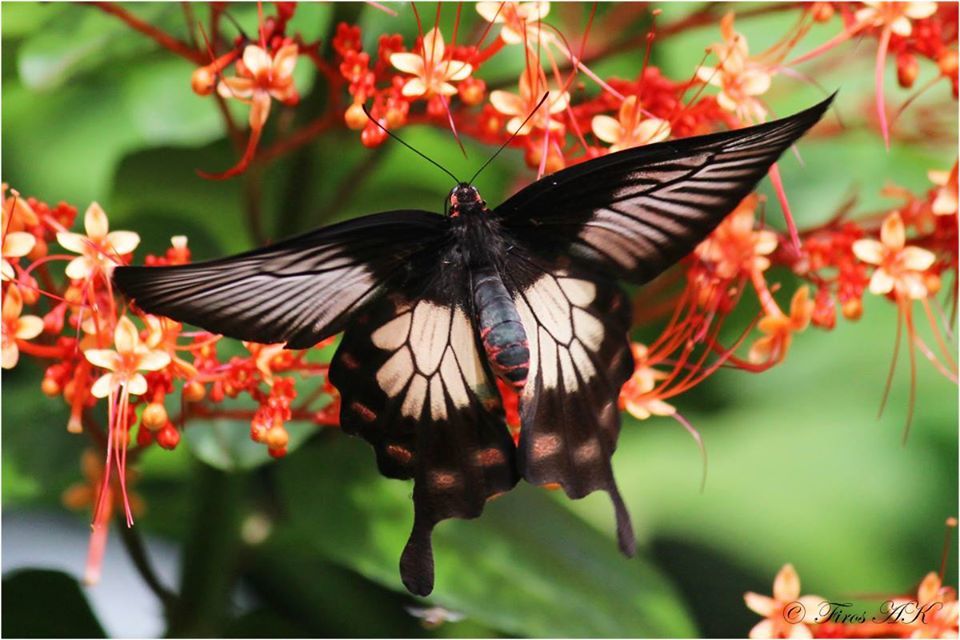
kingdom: Animalia
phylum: Arthropoda
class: Insecta
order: Lepidoptera
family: Papilionidae
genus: Pachliopta
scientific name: Pachliopta pandiyana
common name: Malabar rose
